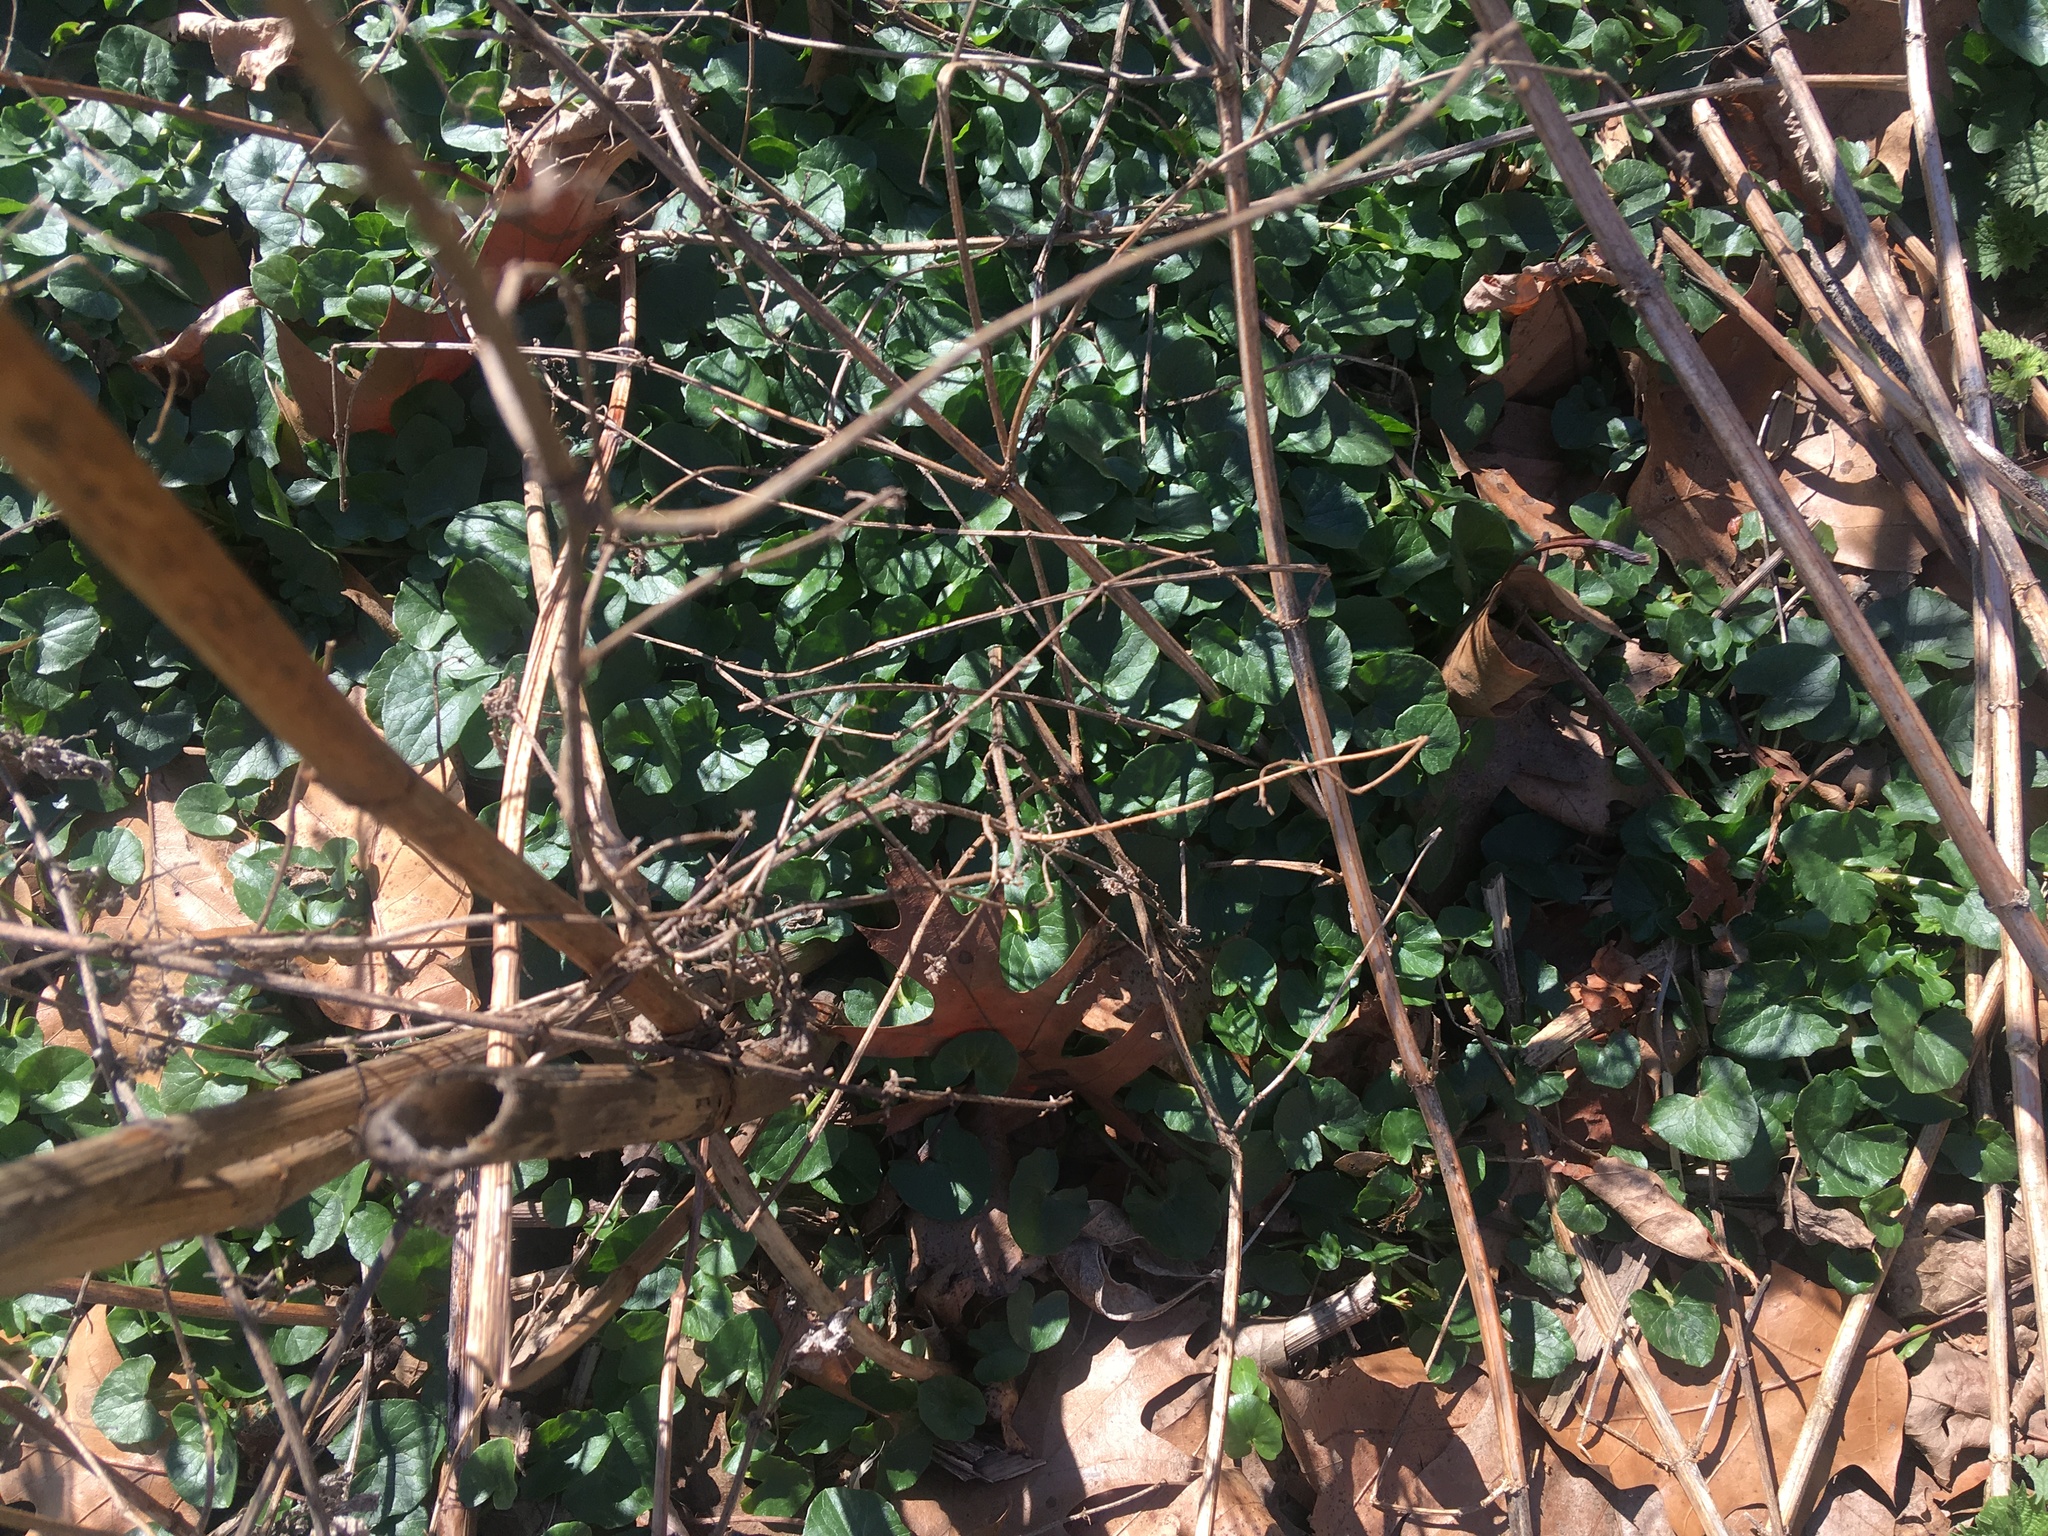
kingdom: Plantae
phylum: Tracheophyta
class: Magnoliopsida
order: Ranunculales
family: Ranunculaceae
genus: Ficaria
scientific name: Ficaria verna
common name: Lesser celandine
